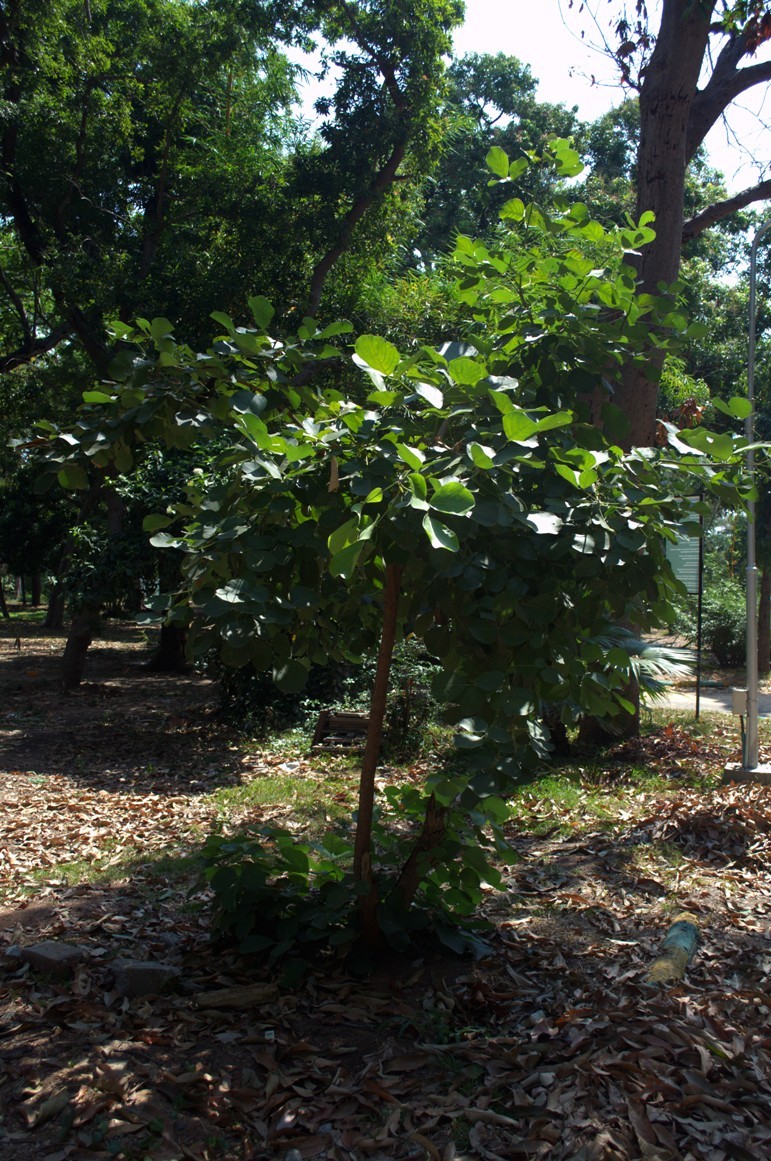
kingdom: Plantae
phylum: Tracheophyta
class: Magnoliopsida
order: Fabales
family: Fabaceae
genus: Butea
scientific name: Butea monosperma
